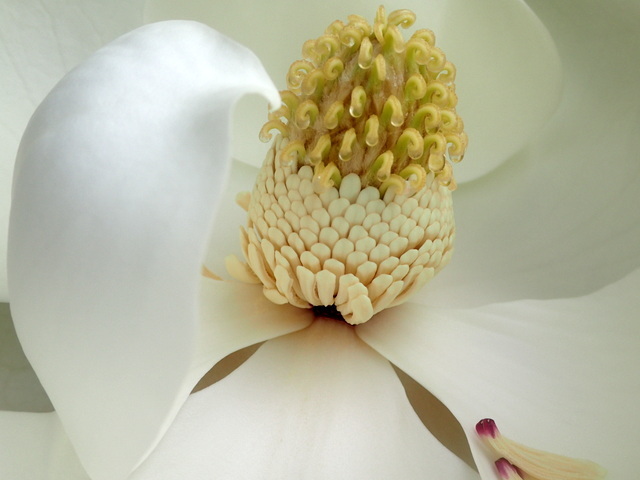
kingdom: Plantae
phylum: Tracheophyta
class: Magnoliopsida
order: Magnoliales
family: Magnoliaceae
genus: Magnolia
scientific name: Magnolia grandiflora
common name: Southern magnolia
